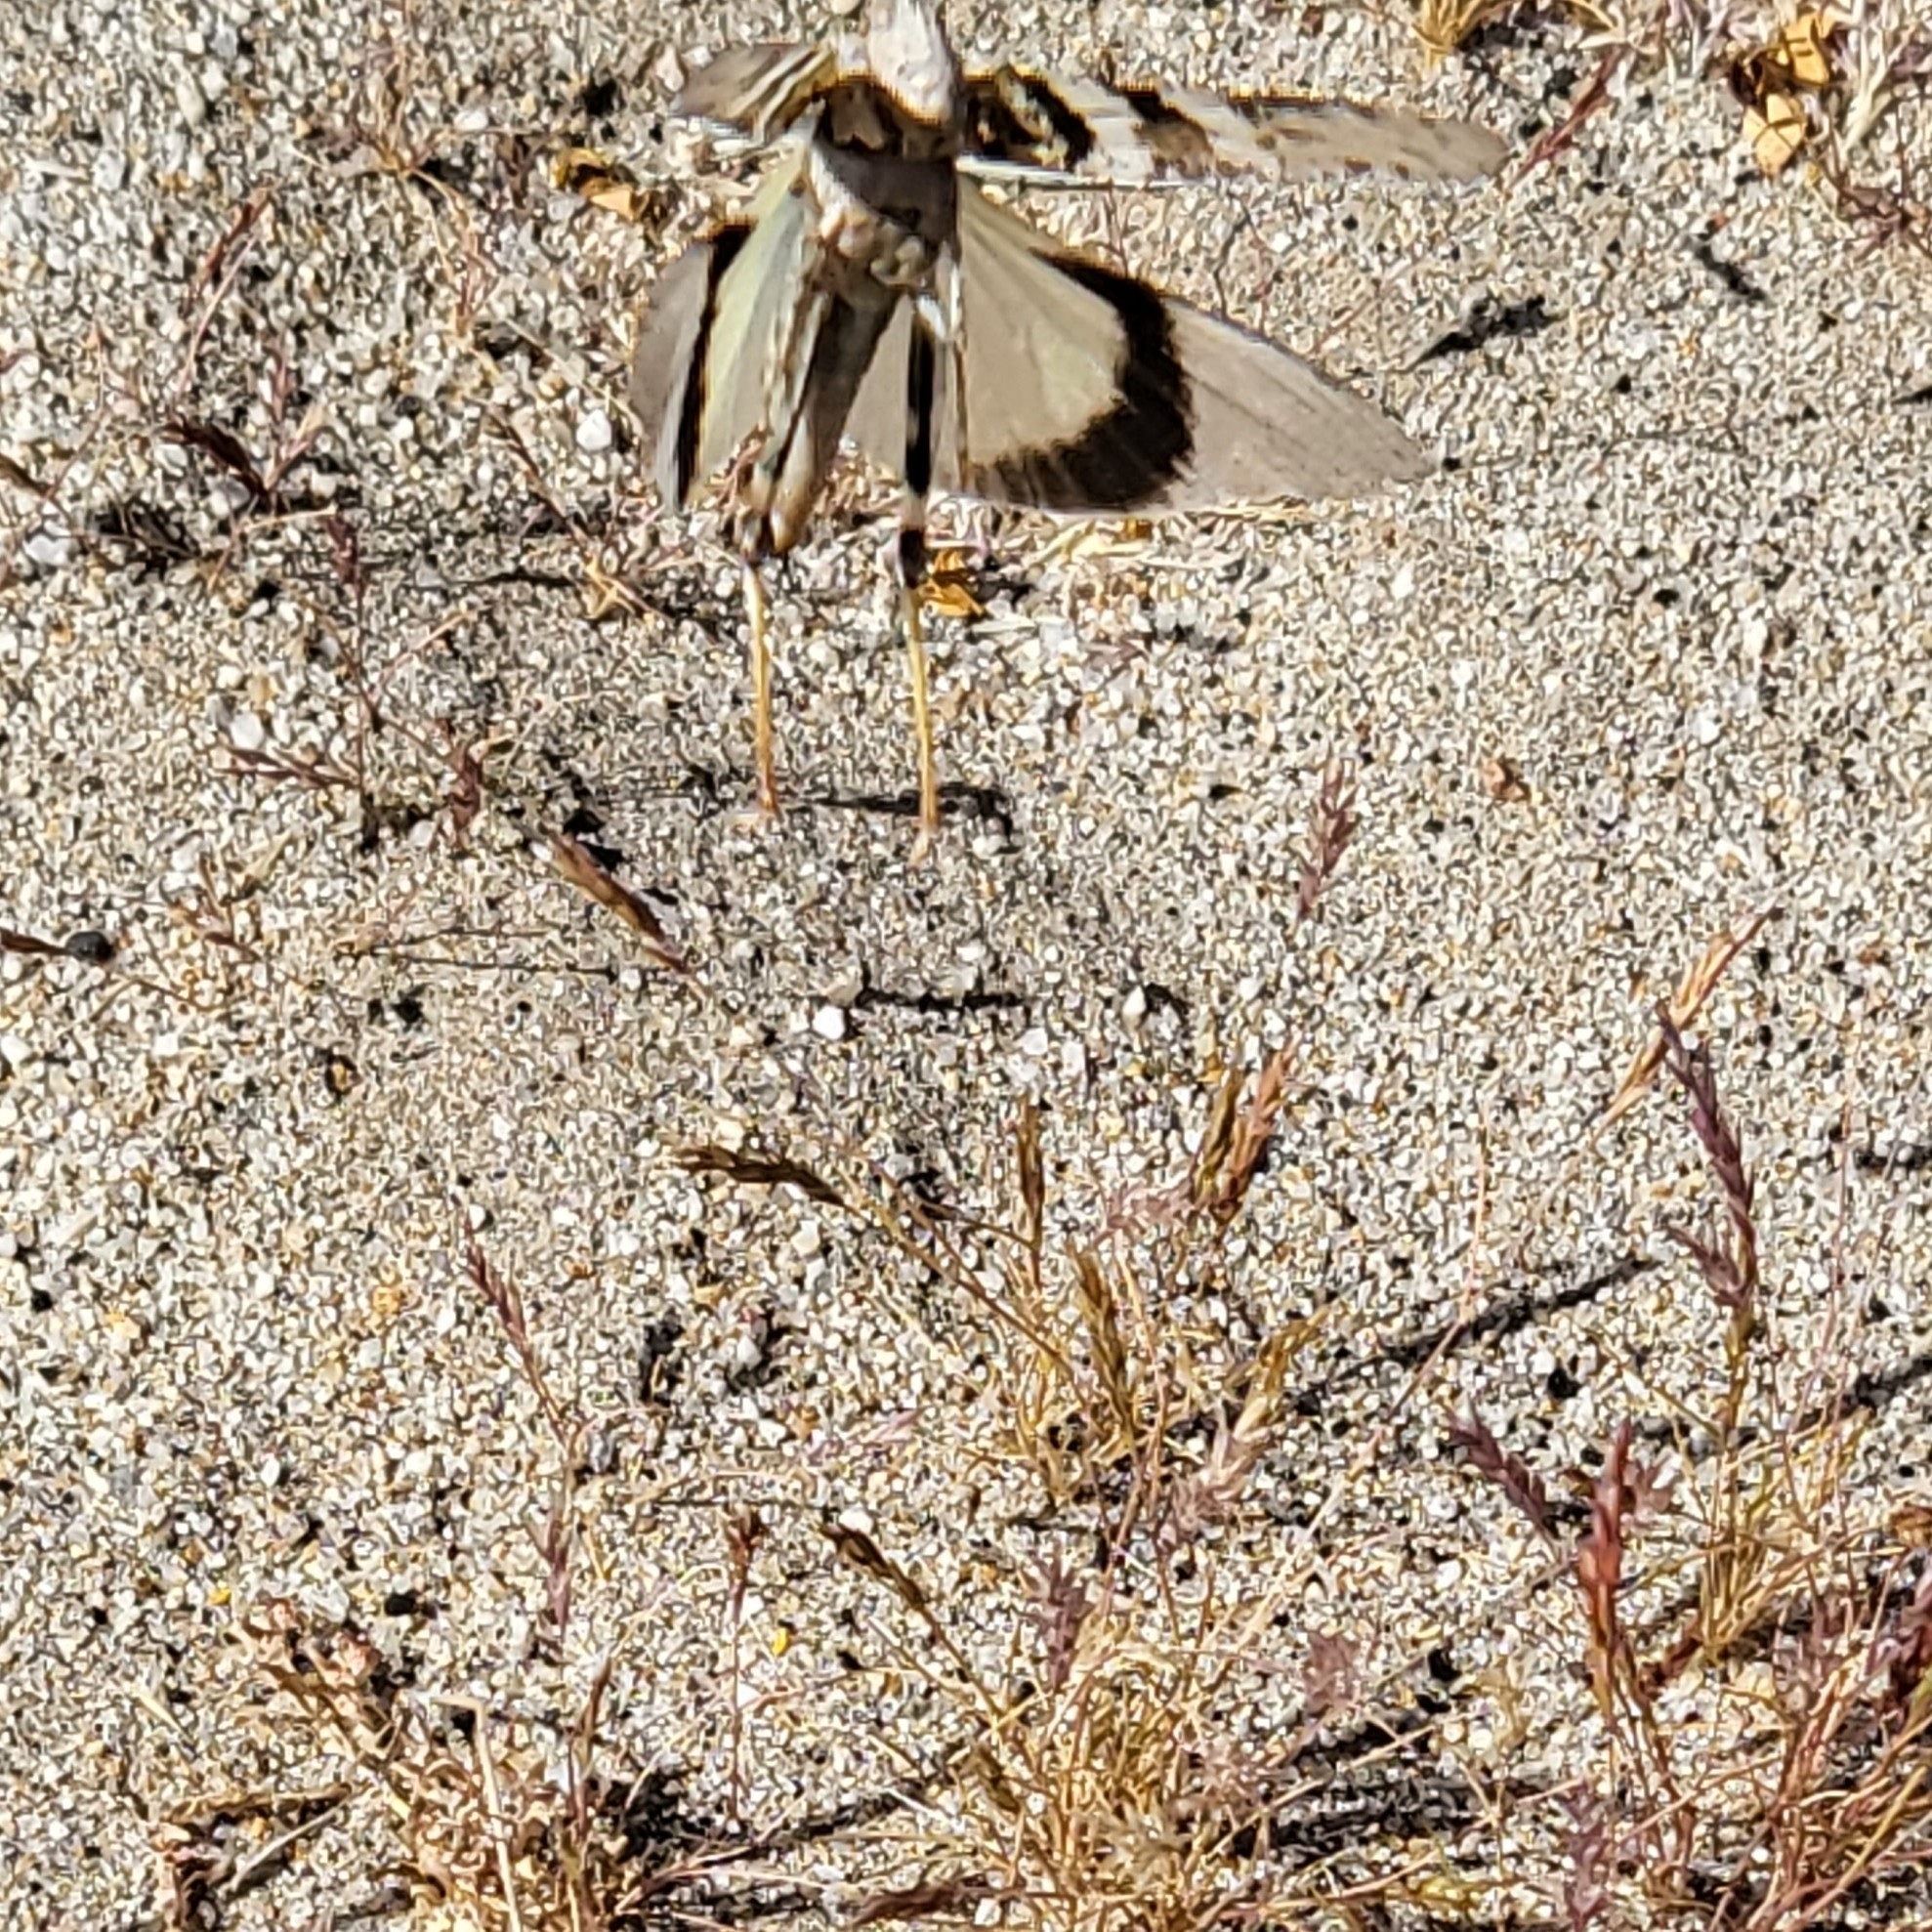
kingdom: Animalia
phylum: Arthropoda
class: Insecta
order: Orthoptera
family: Acrididae
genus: Trimerotropis
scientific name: Trimerotropis pallidipennis
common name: Pallid-winged grasshopper
